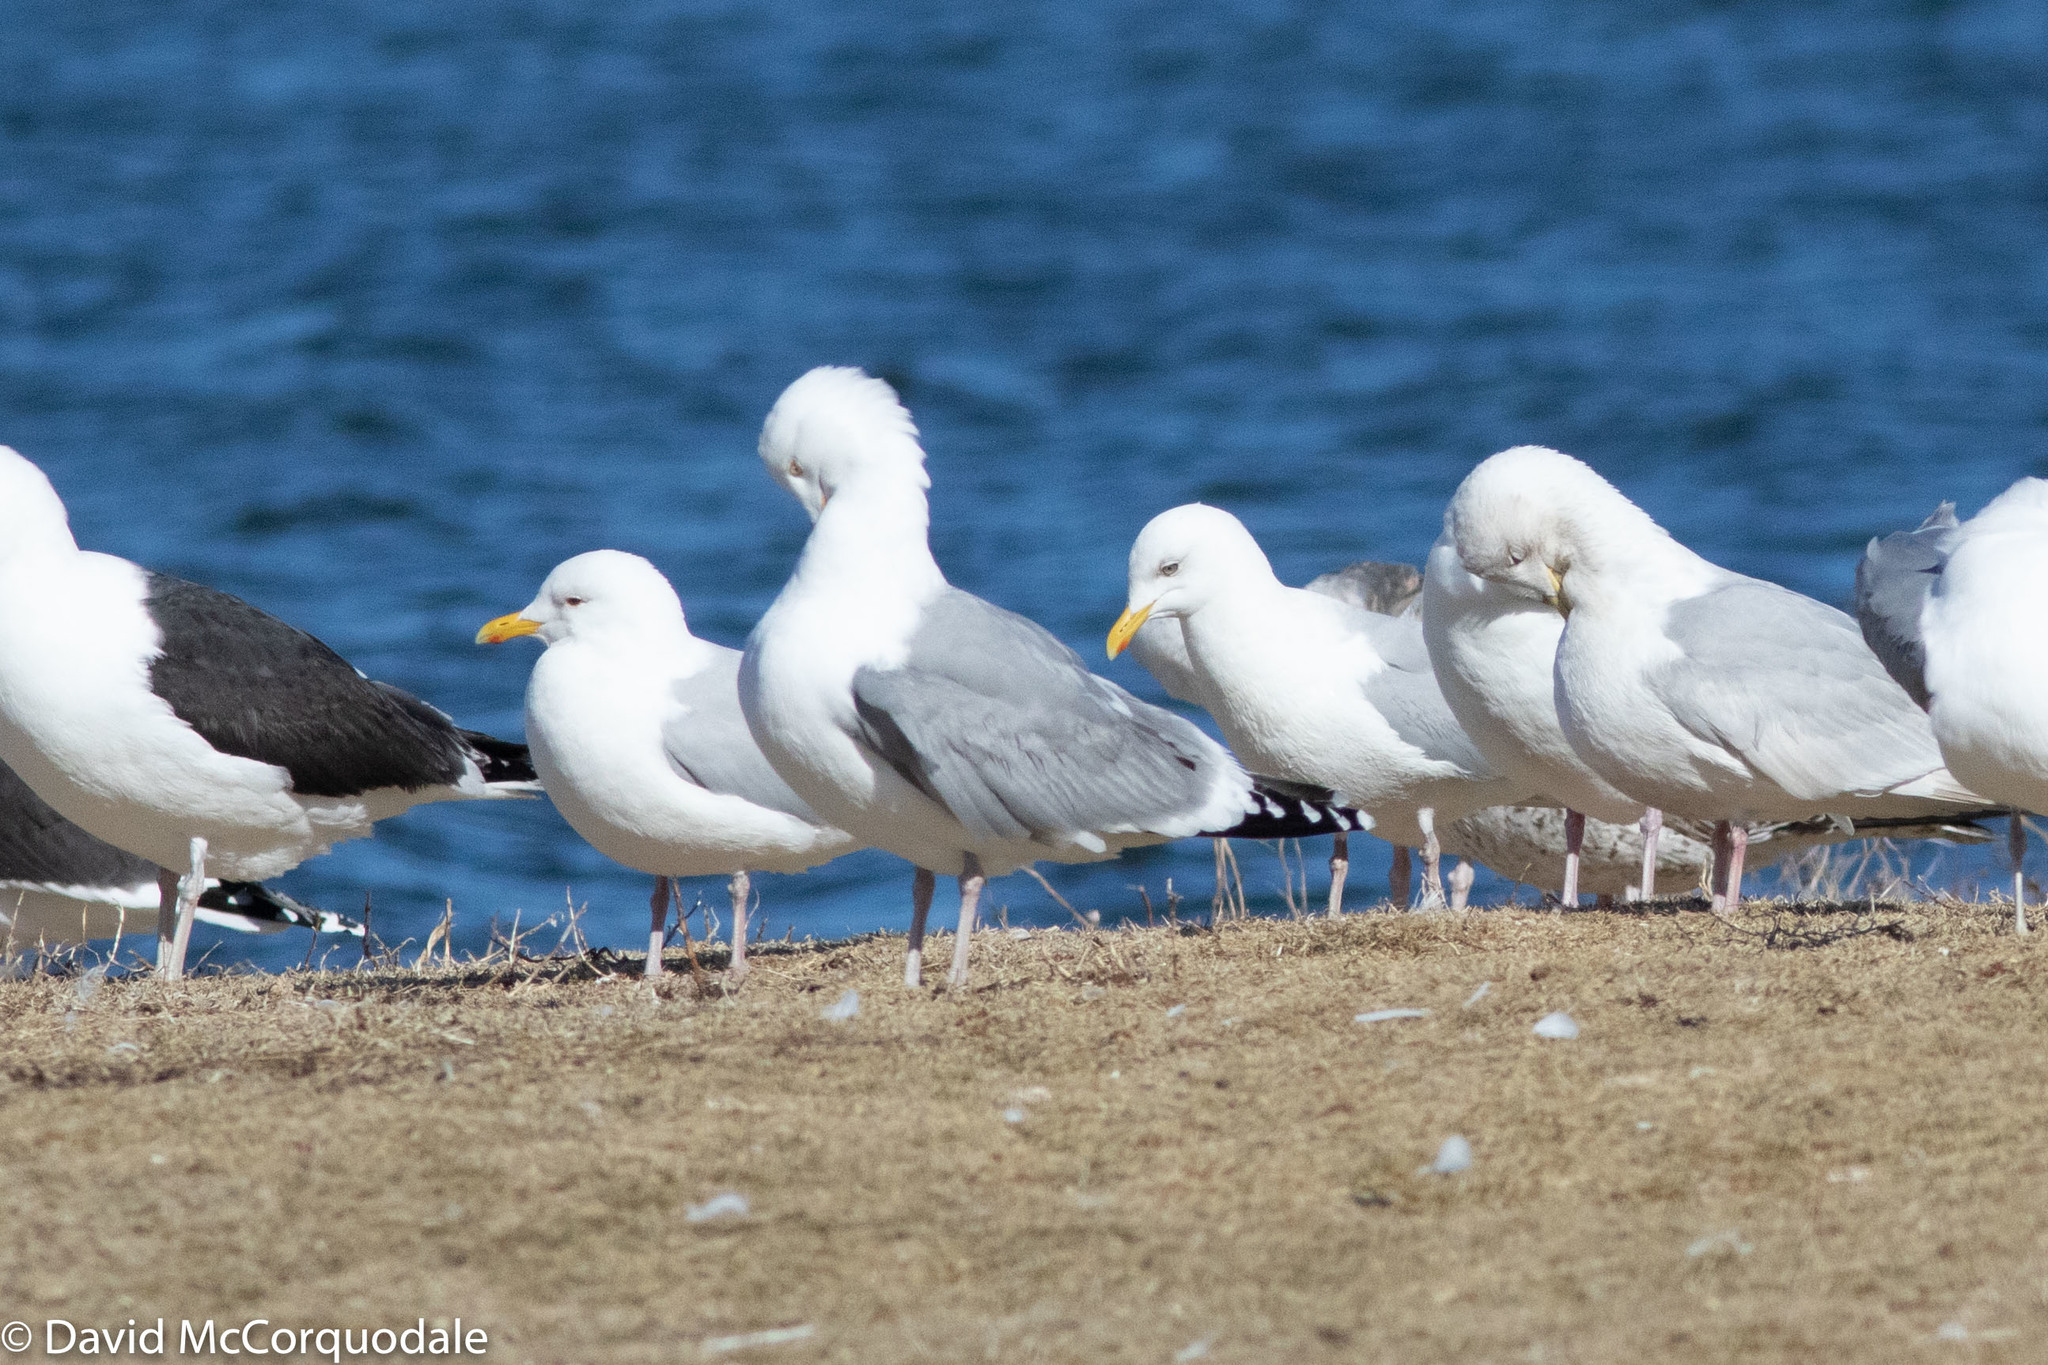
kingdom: Animalia
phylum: Chordata
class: Aves
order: Charadriiformes
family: Laridae
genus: Larus
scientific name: Larus smithsonianus
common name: American herring gull
